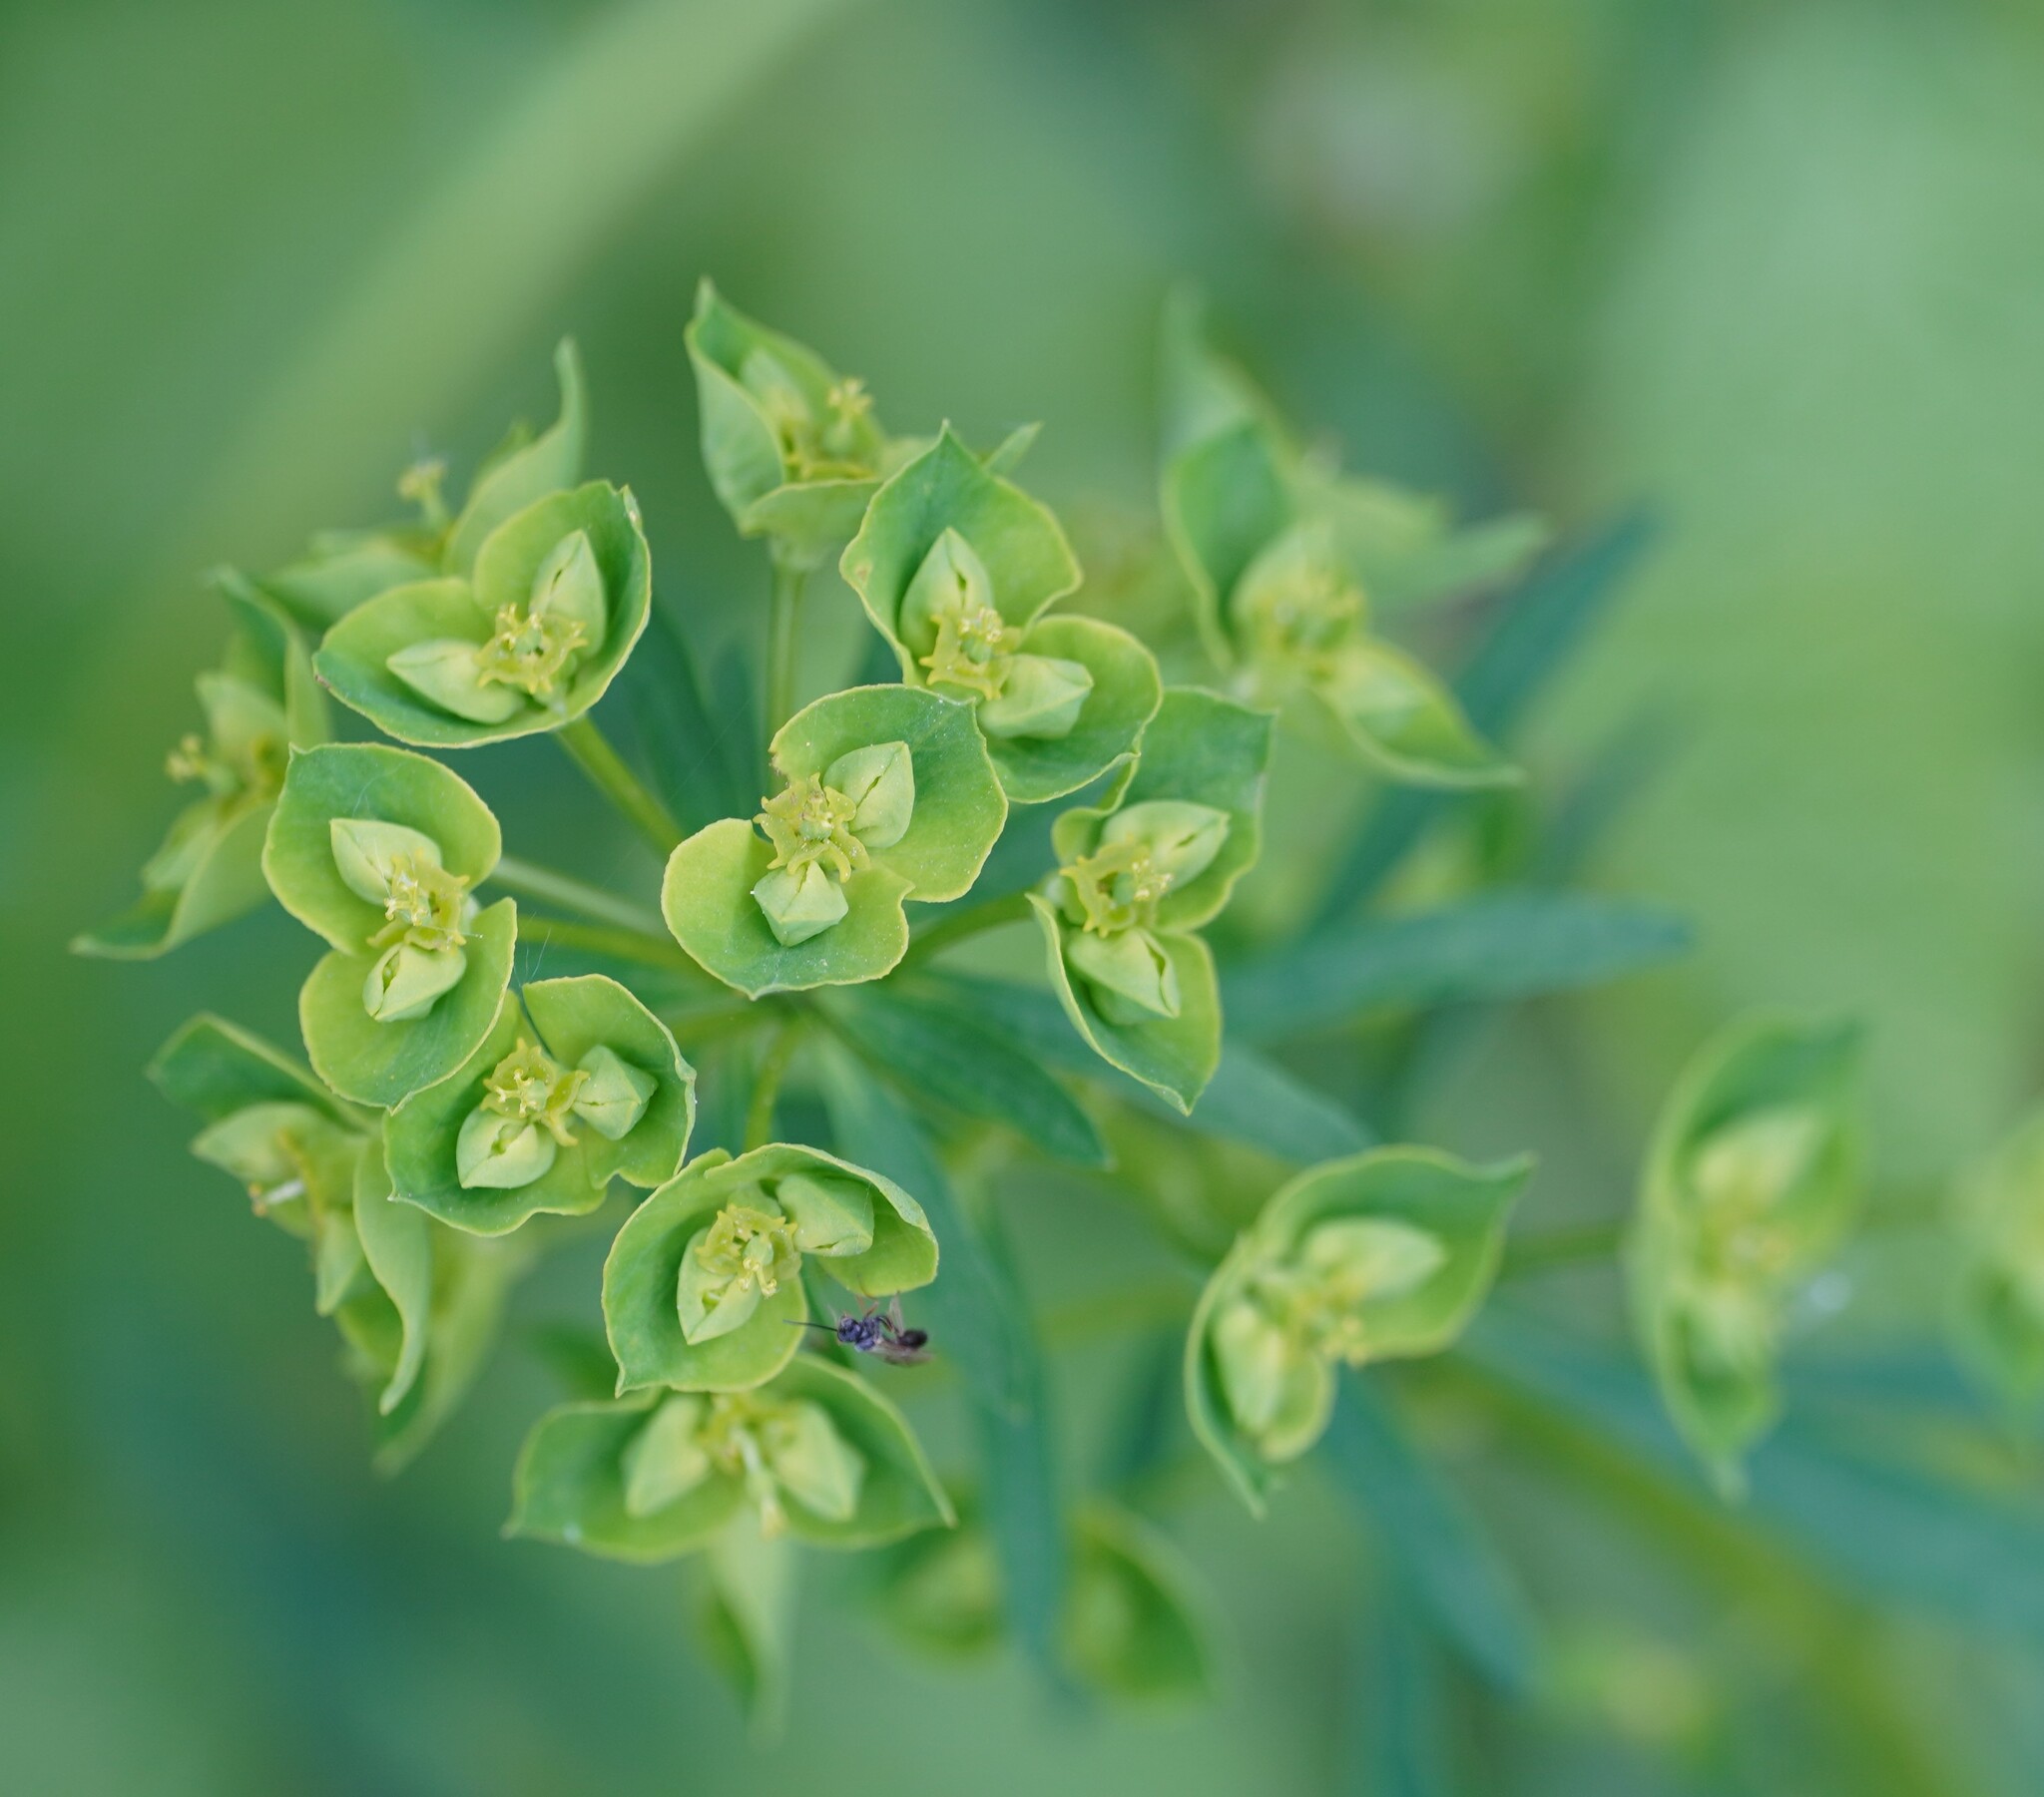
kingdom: Plantae
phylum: Tracheophyta
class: Magnoliopsida
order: Malpighiales
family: Euphorbiaceae
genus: Euphorbia
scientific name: Euphorbia esula
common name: Leafy spurge
